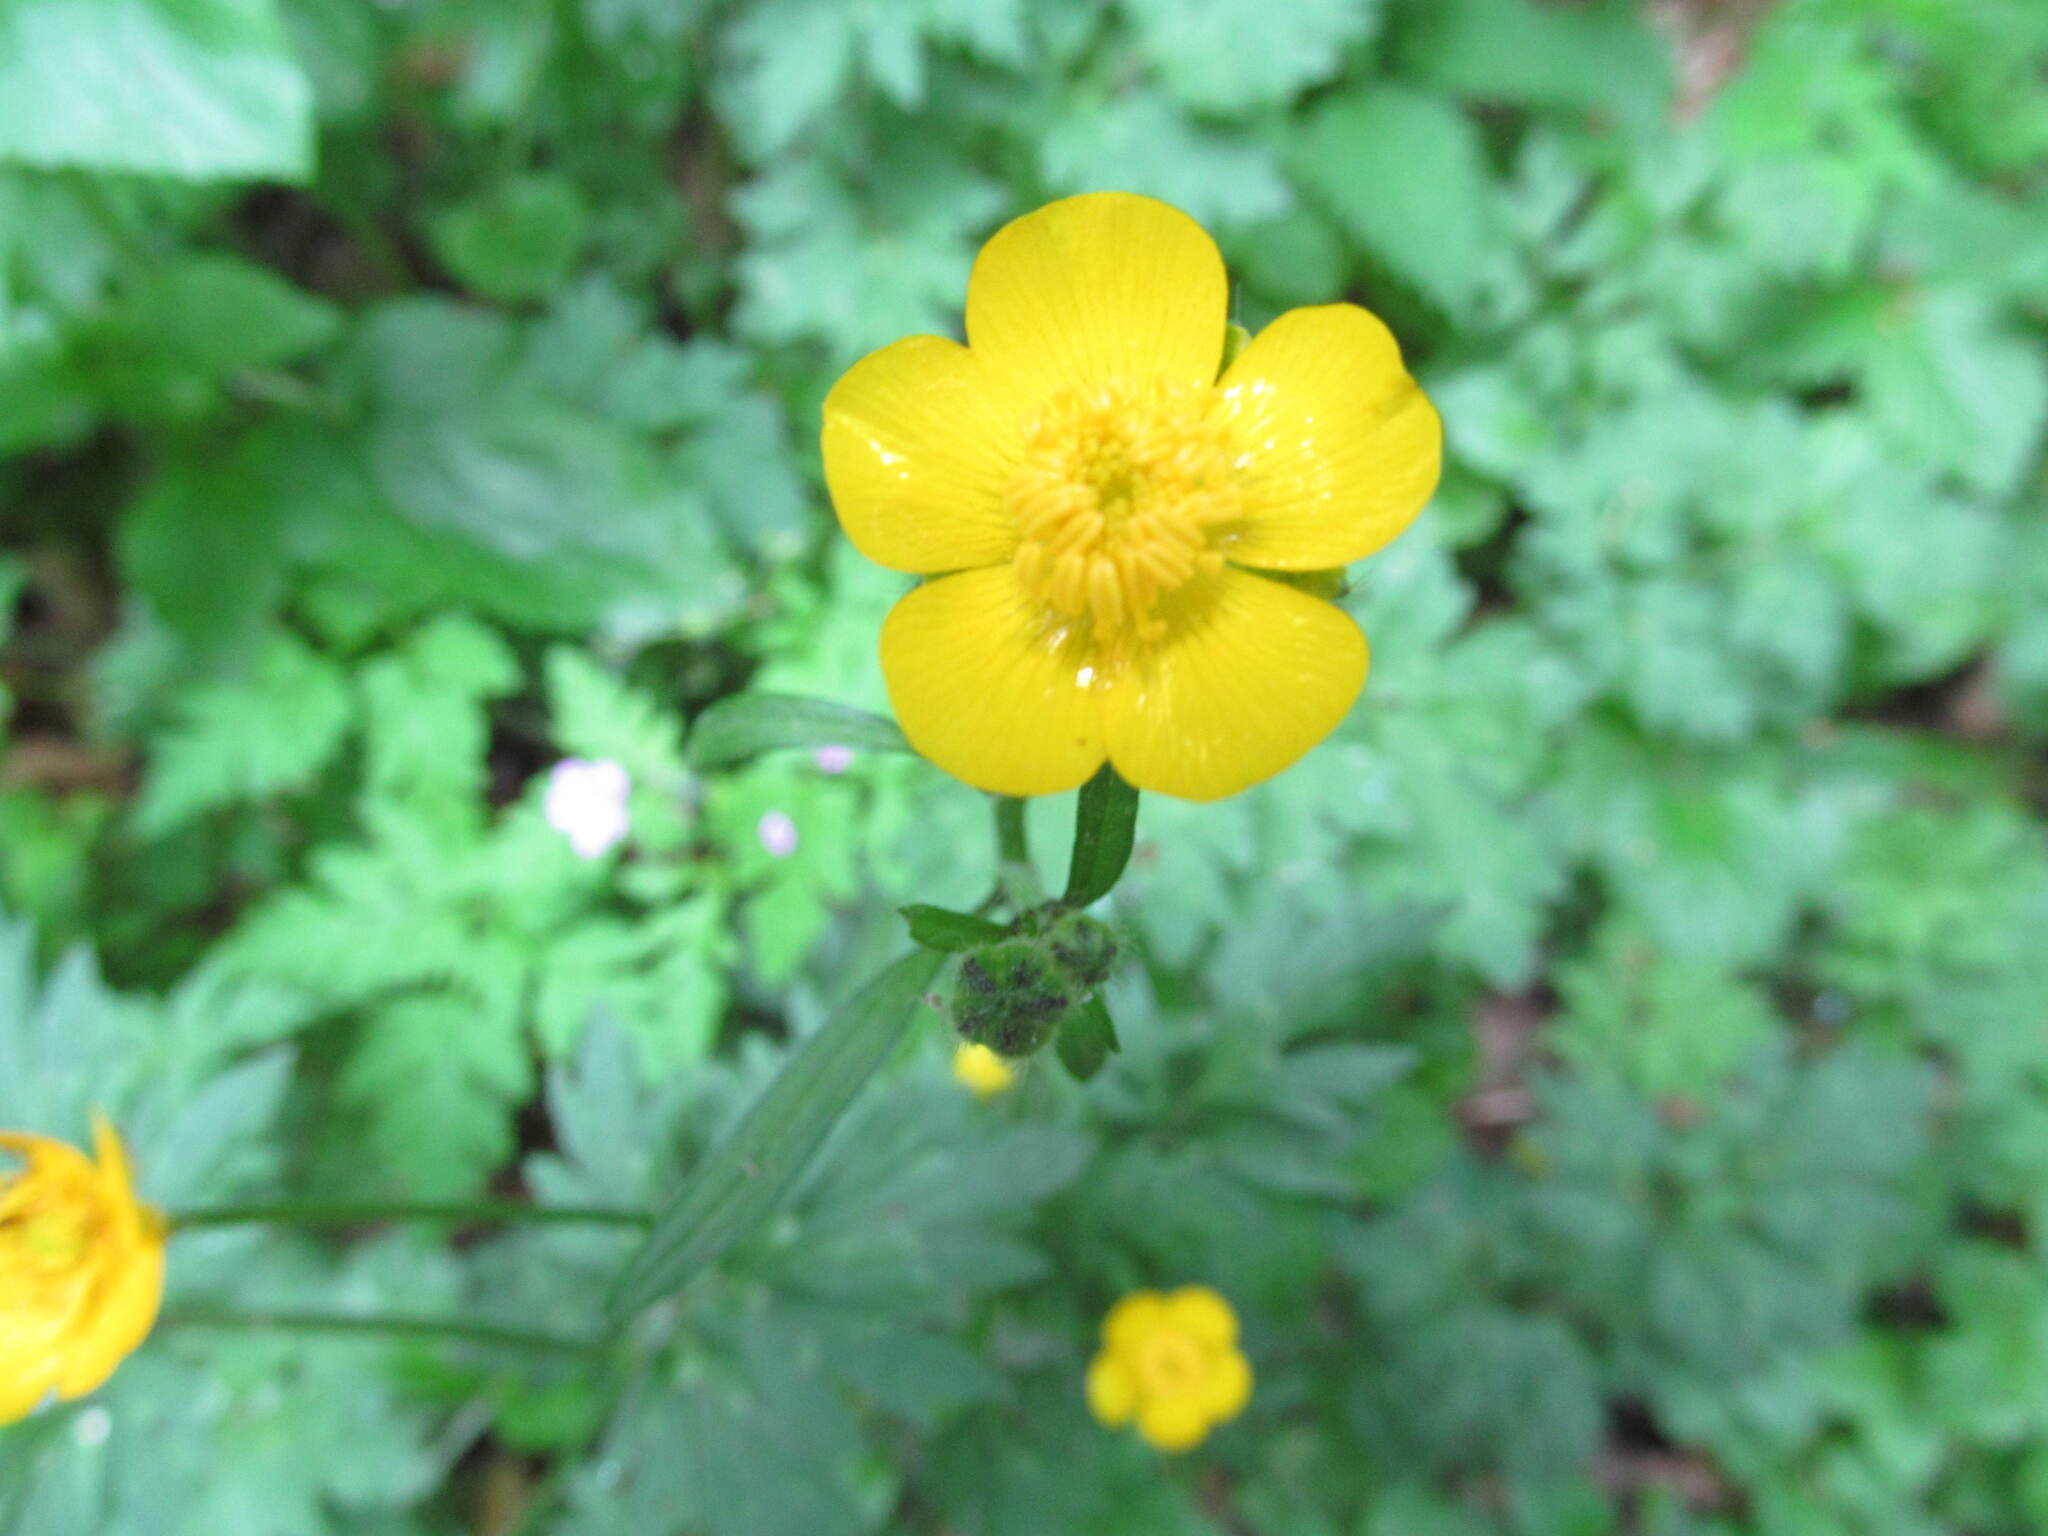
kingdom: Plantae
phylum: Tracheophyta
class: Magnoliopsida
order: Ranunculales
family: Ranunculaceae
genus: Ranunculus
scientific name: Ranunculus lanuginosus
